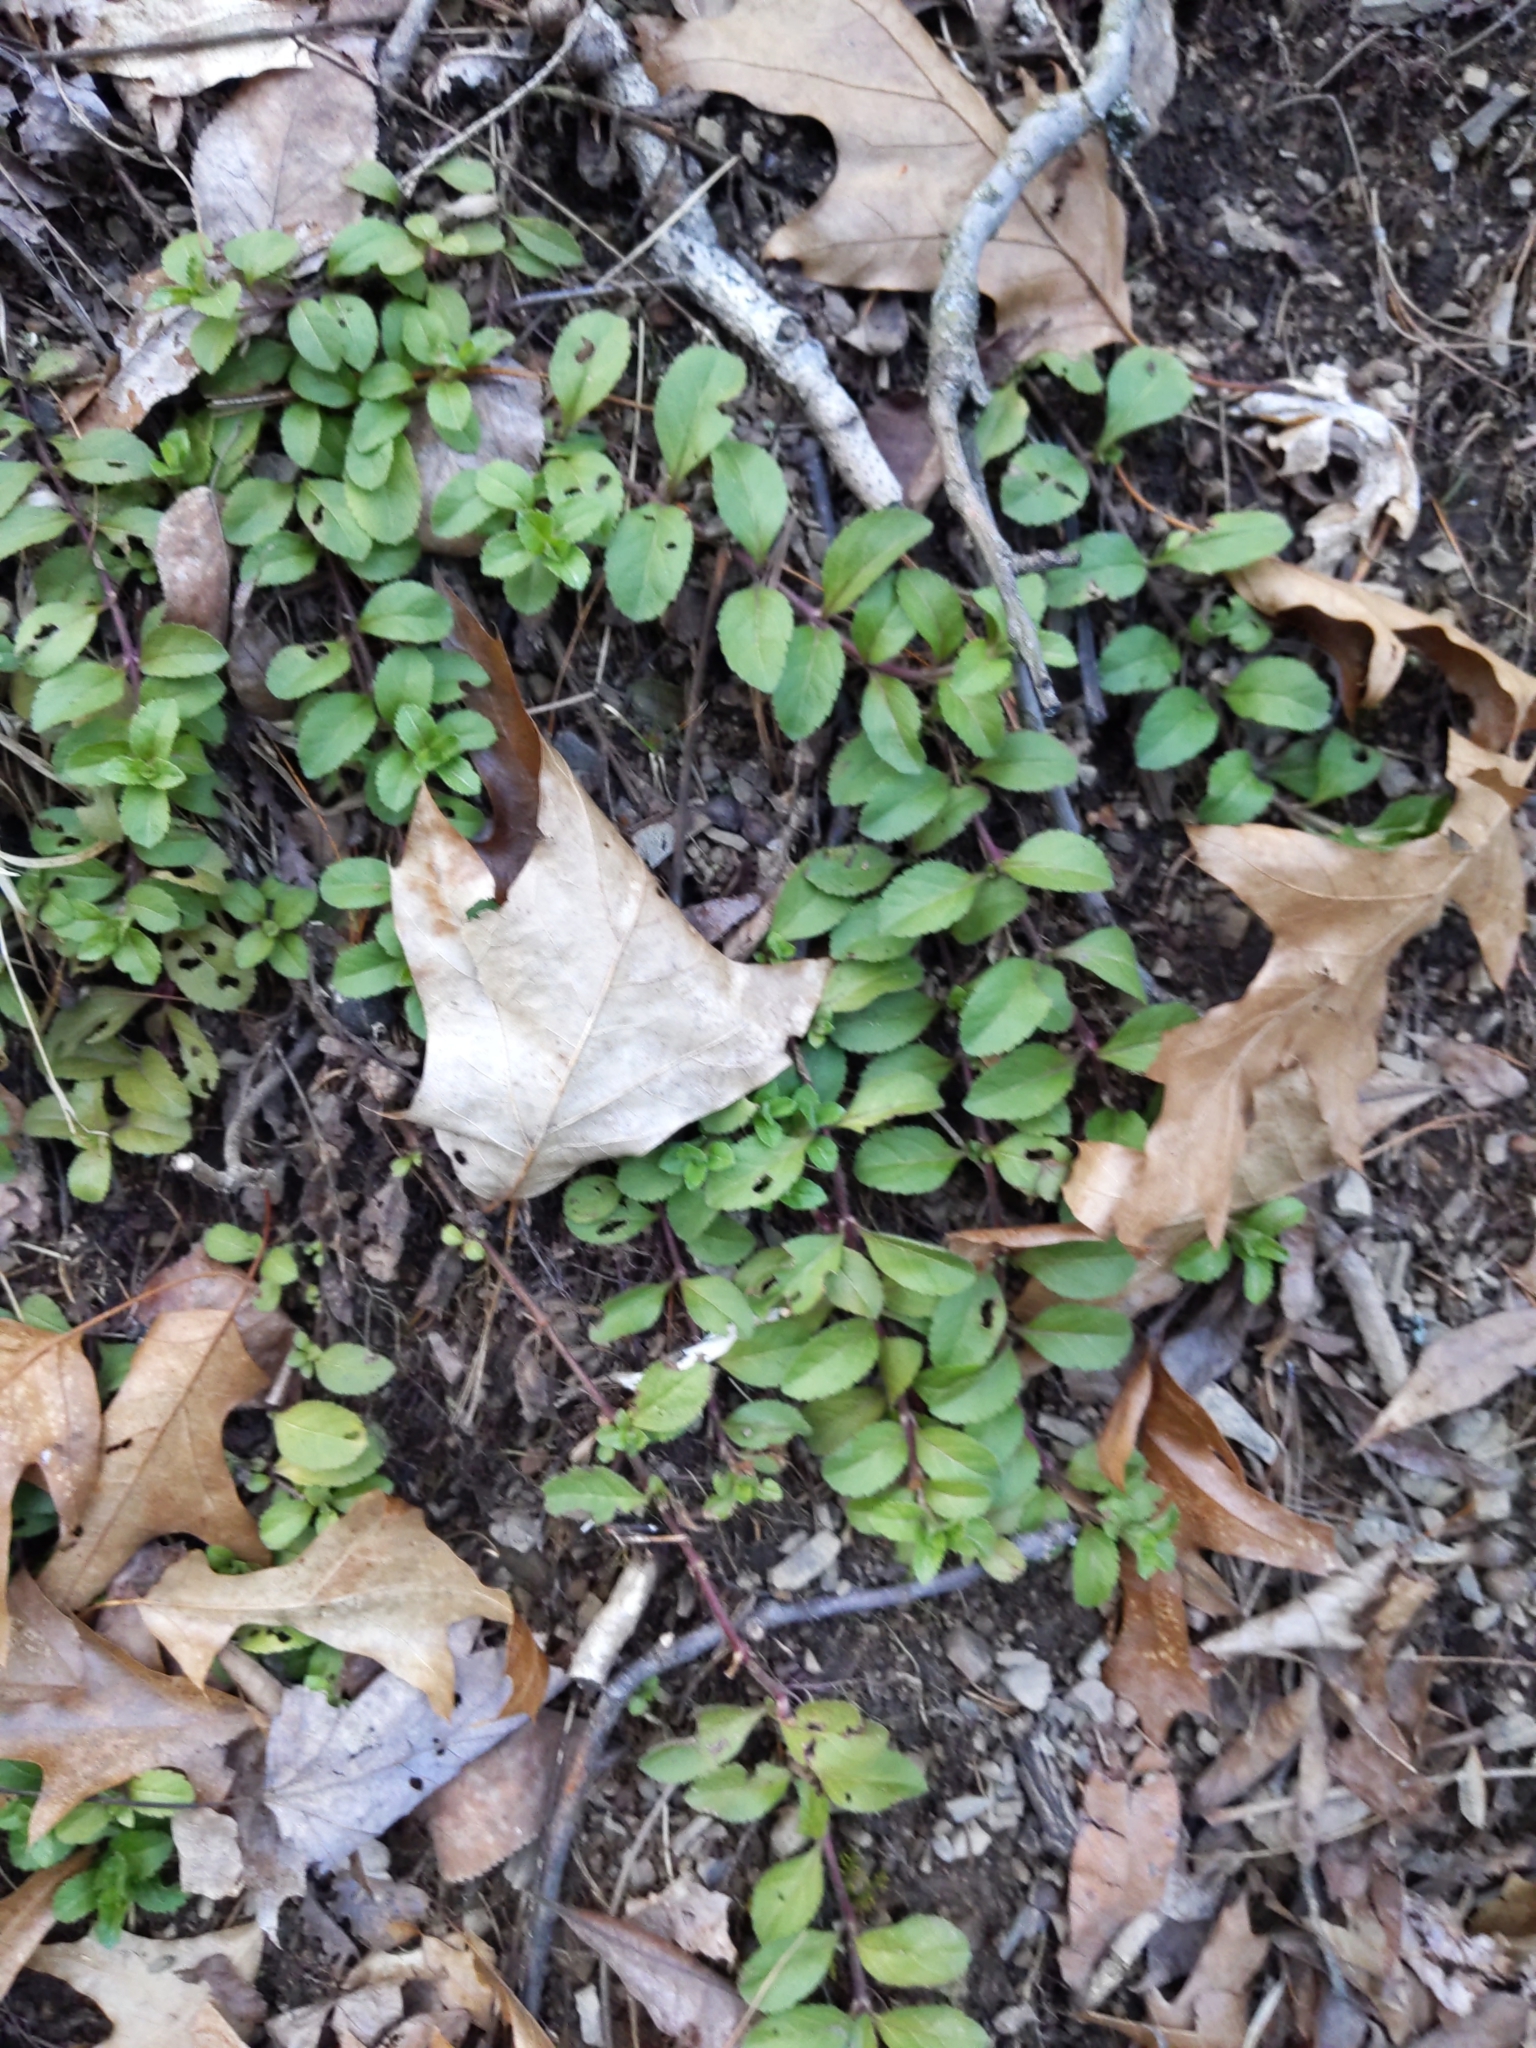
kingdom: Plantae
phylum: Tracheophyta
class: Magnoliopsida
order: Lamiales
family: Plantaginaceae
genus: Veronica
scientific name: Veronica officinalis
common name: Common speedwell
